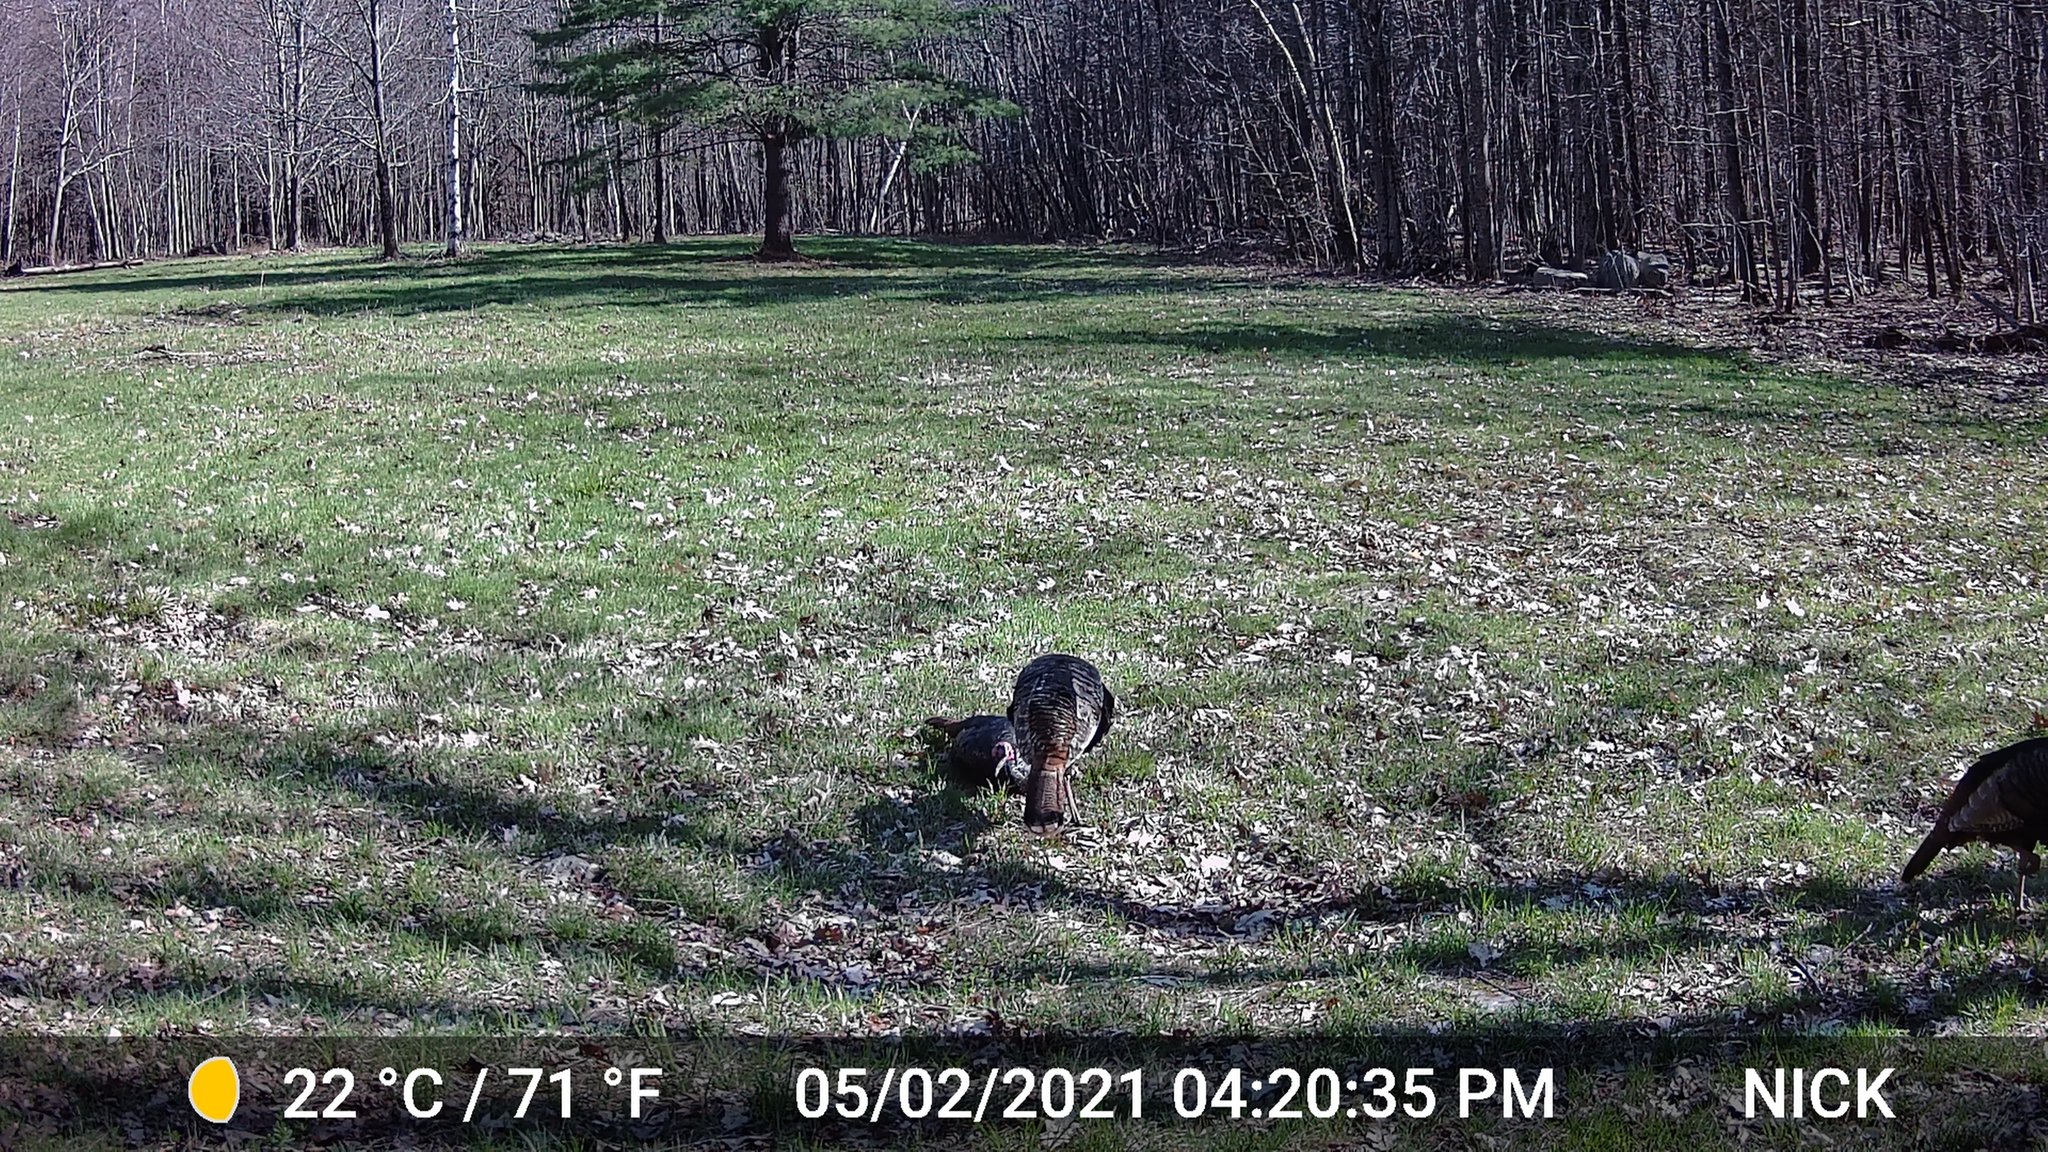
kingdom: Animalia
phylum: Chordata
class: Aves
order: Galliformes
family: Phasianidae
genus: Meleagris
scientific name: Meleagris gallopavo
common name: Wild turkey
